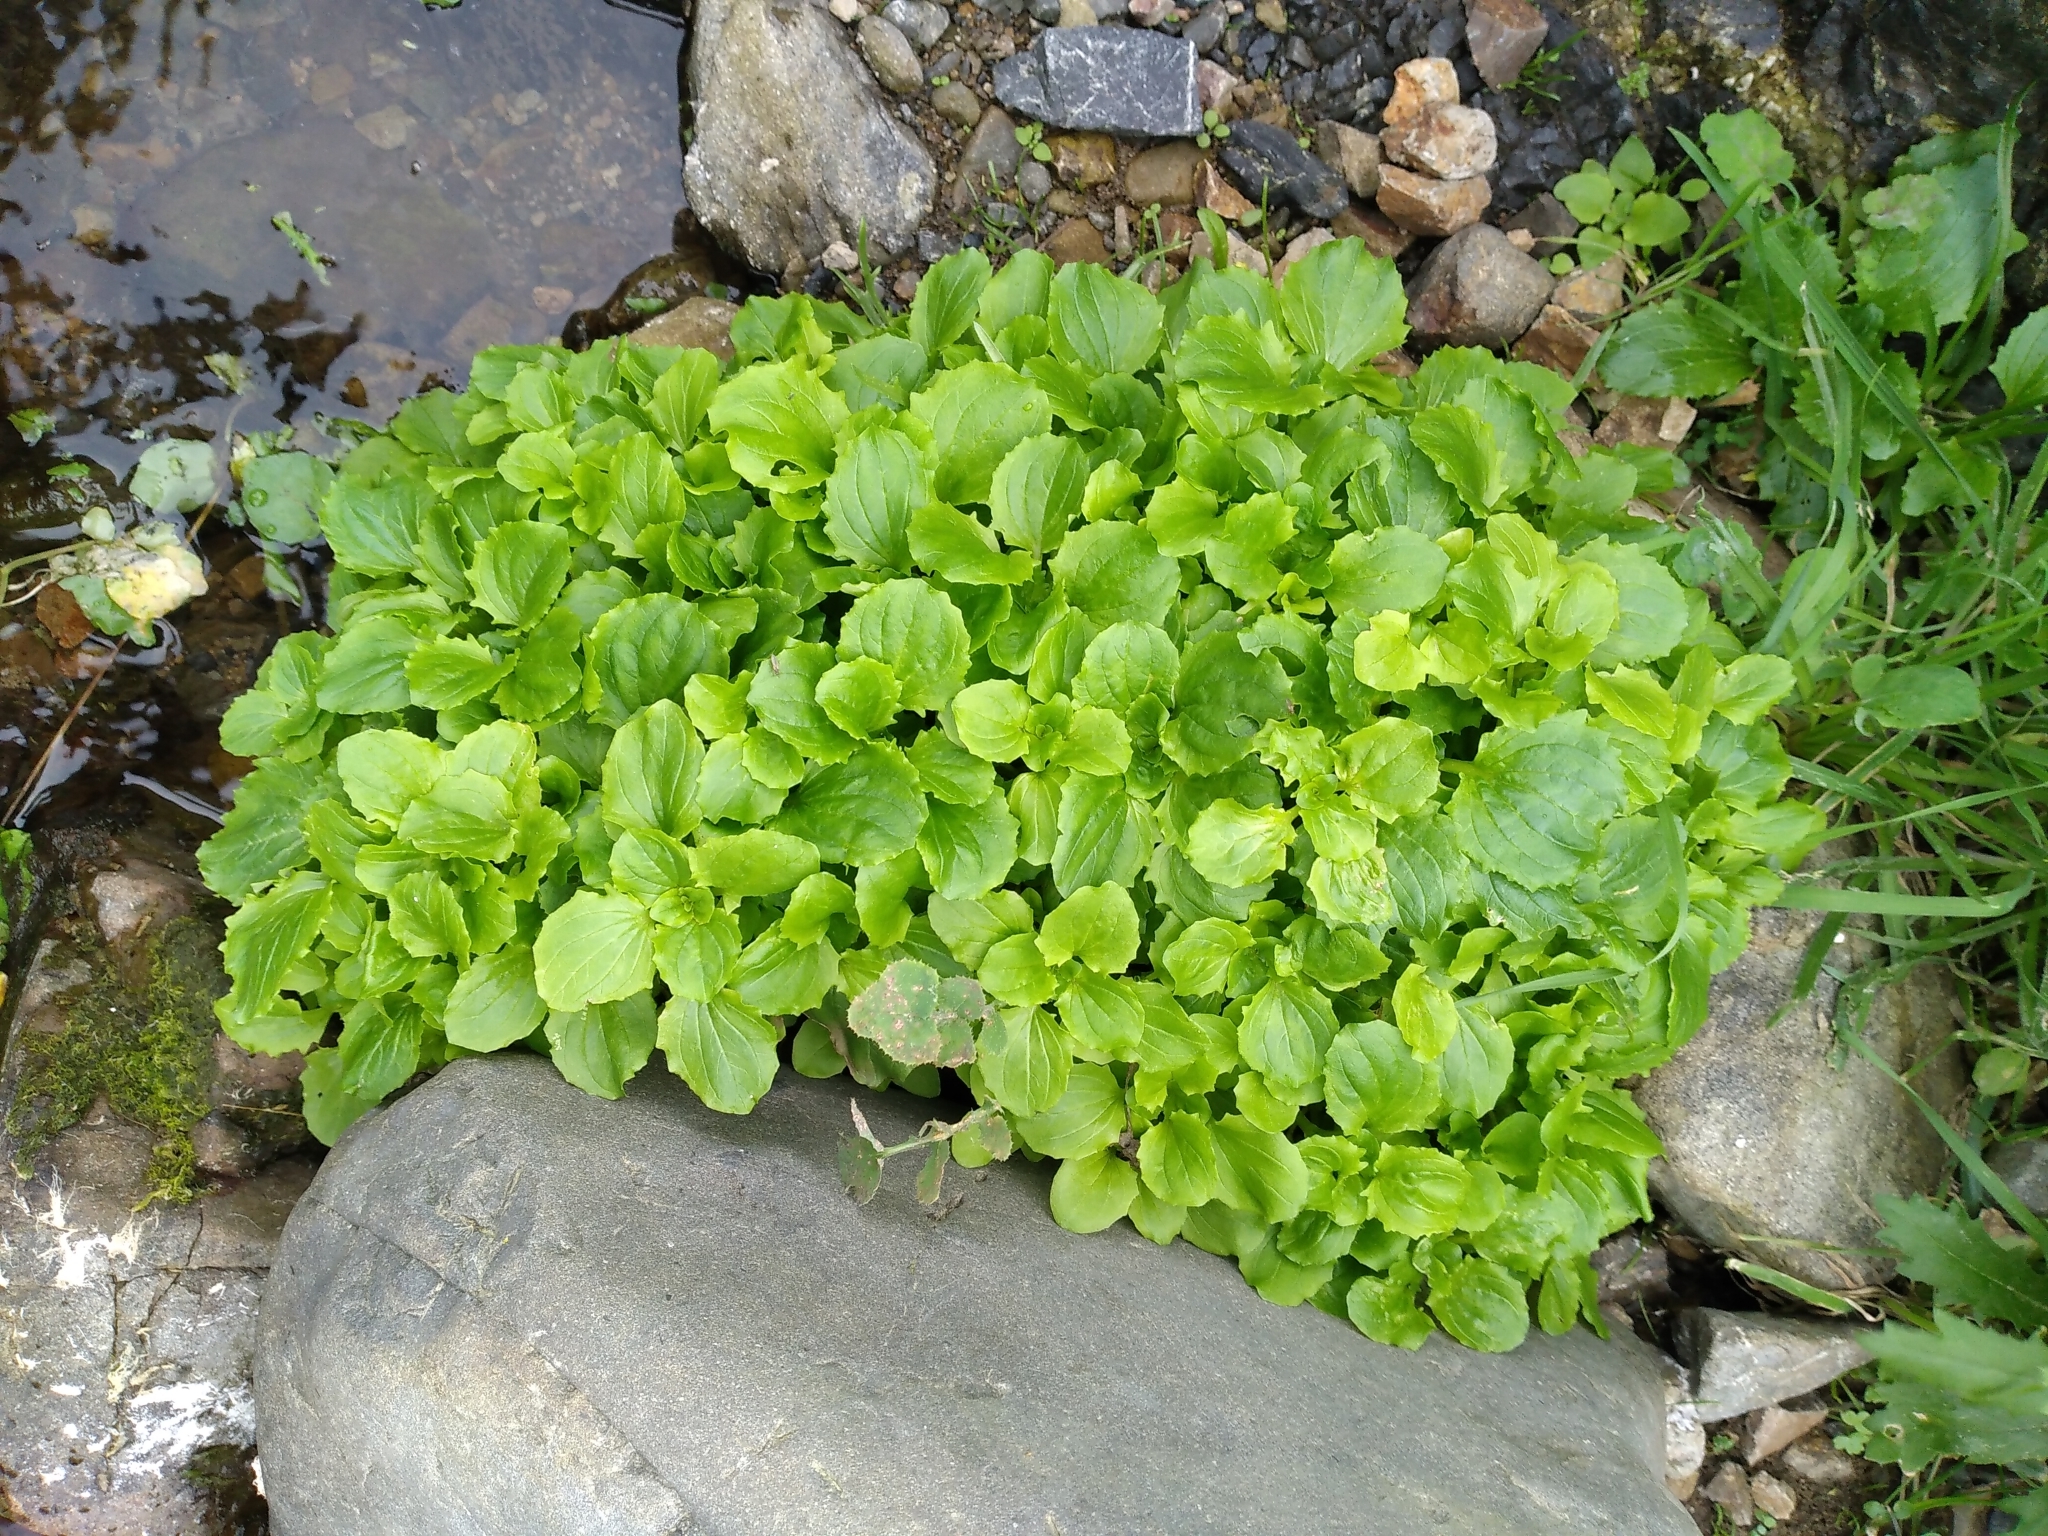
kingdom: Plantae
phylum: Tracheophyta
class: Magnoliopsida
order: Lamiales
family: Phrymaceae
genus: Erythranthe
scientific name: Erythranthe guttata
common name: Monkeyflower
